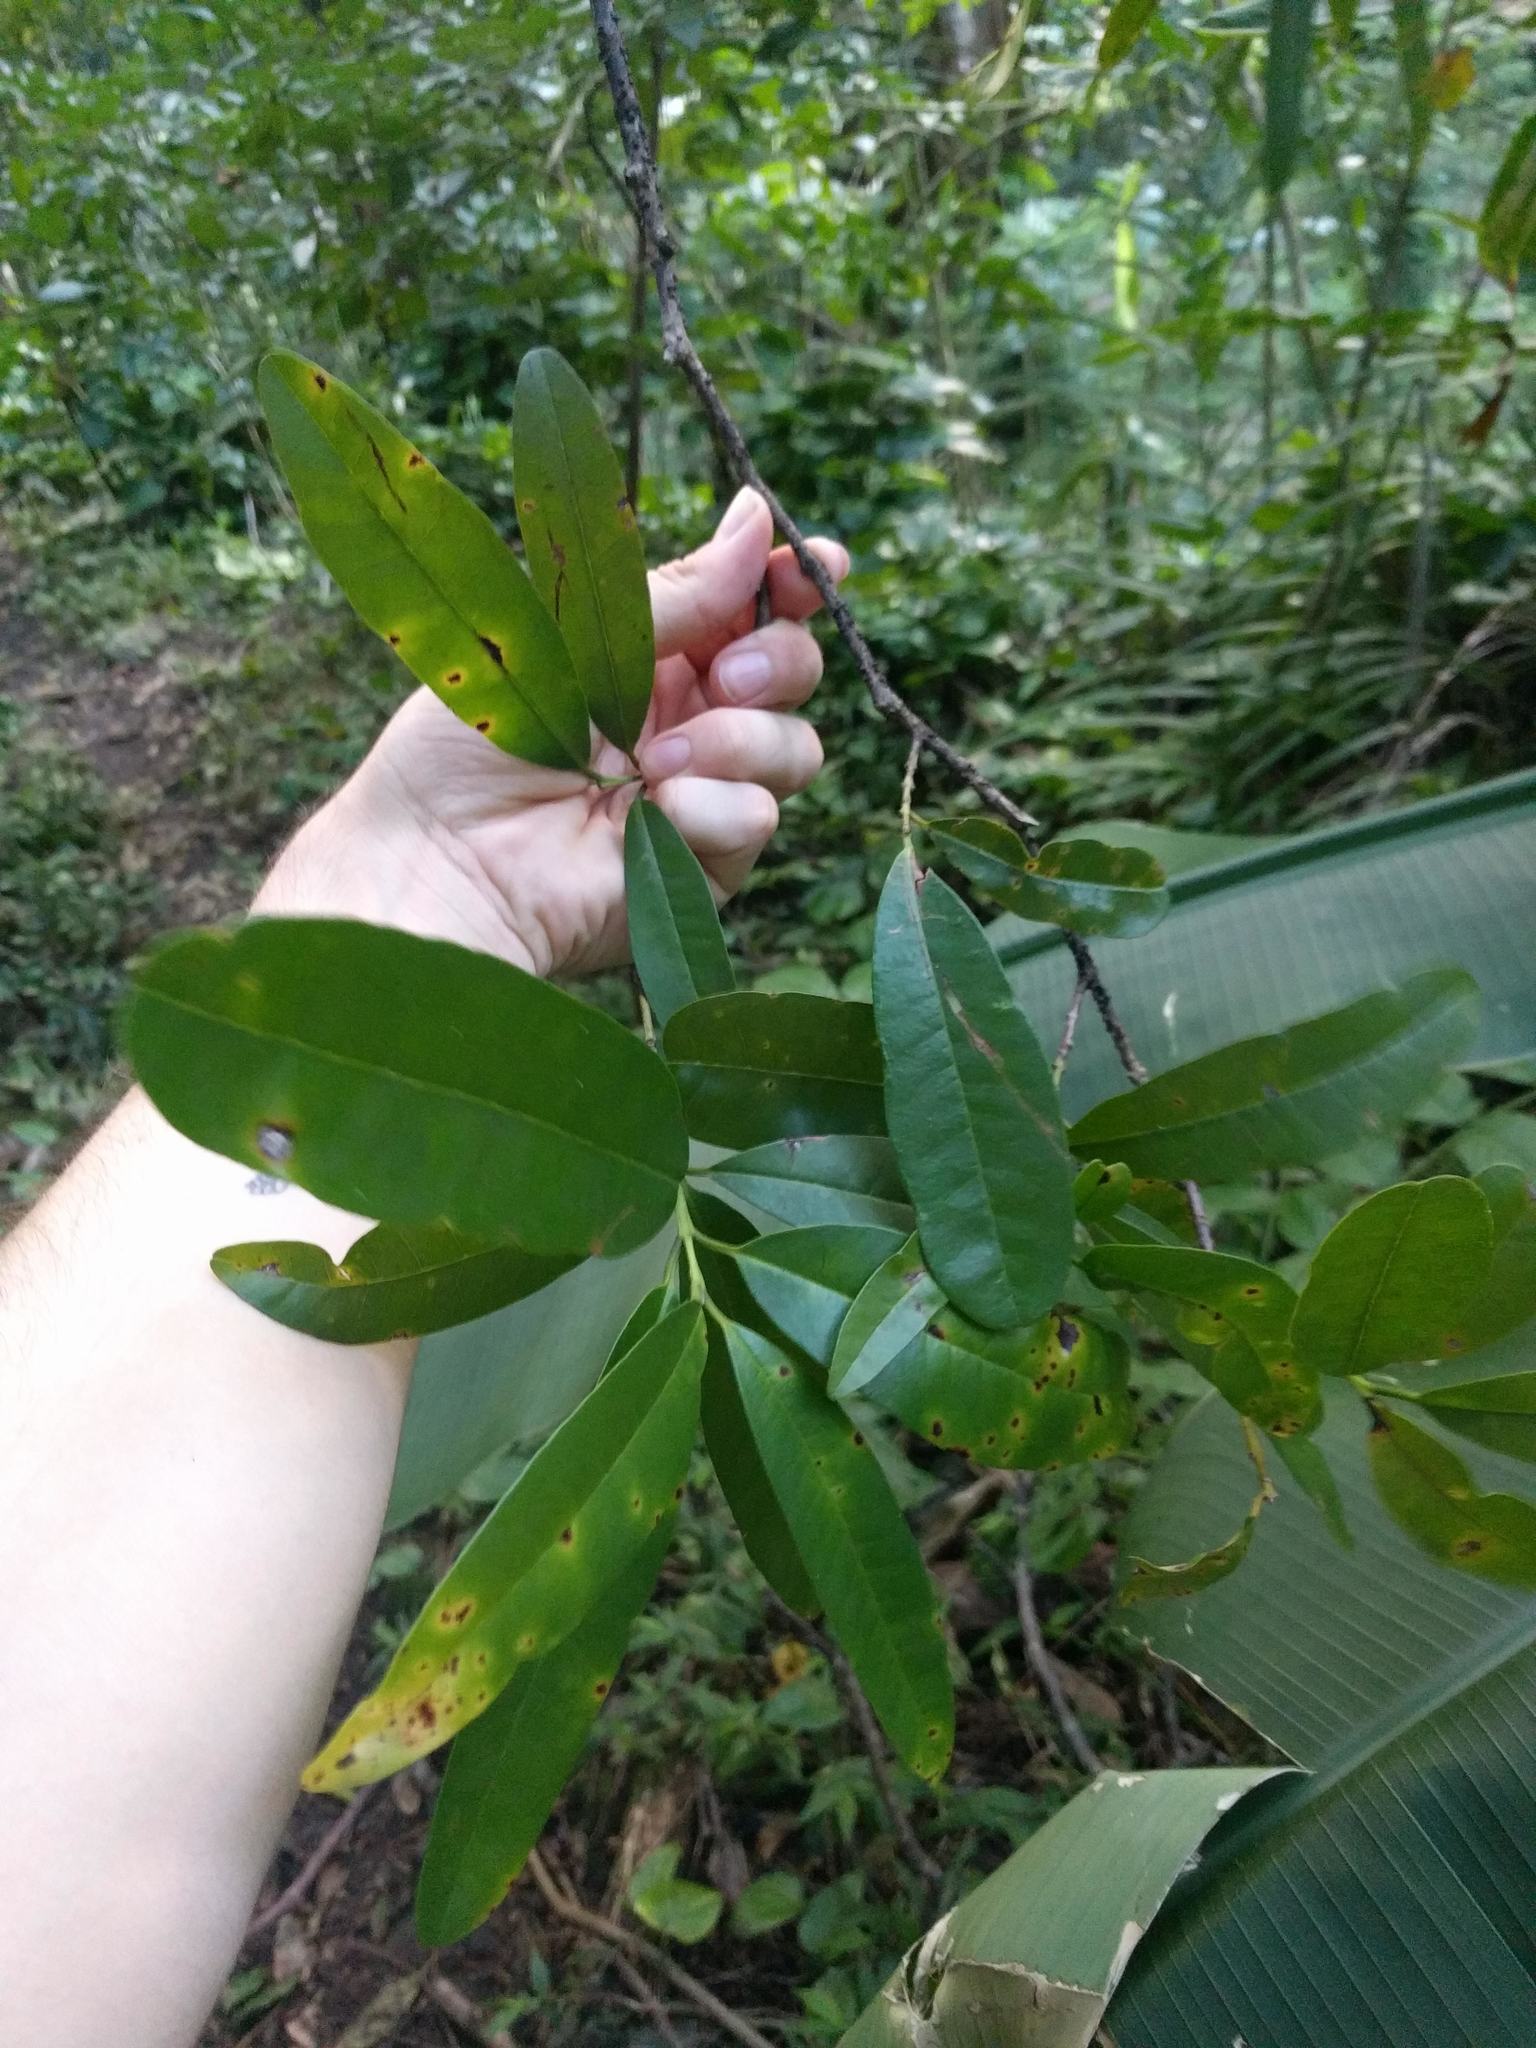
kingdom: Plantae
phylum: Tracheophyta
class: Magnoliopsida
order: Myrtales
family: Myrtaceae
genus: Pimenta
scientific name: Pimenta dioica
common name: Allspice
